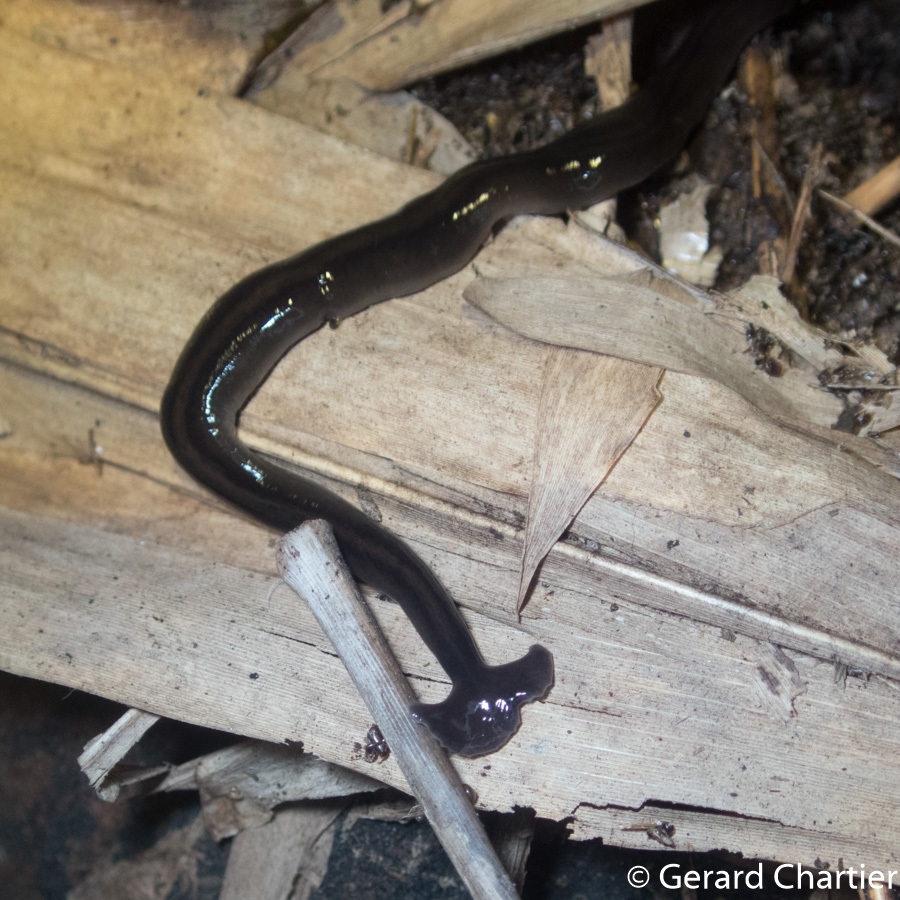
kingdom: Animalia
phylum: Platyhelminthes
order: Tricladida
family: Geoplanidae
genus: Bipalium
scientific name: Bipalium javanum
